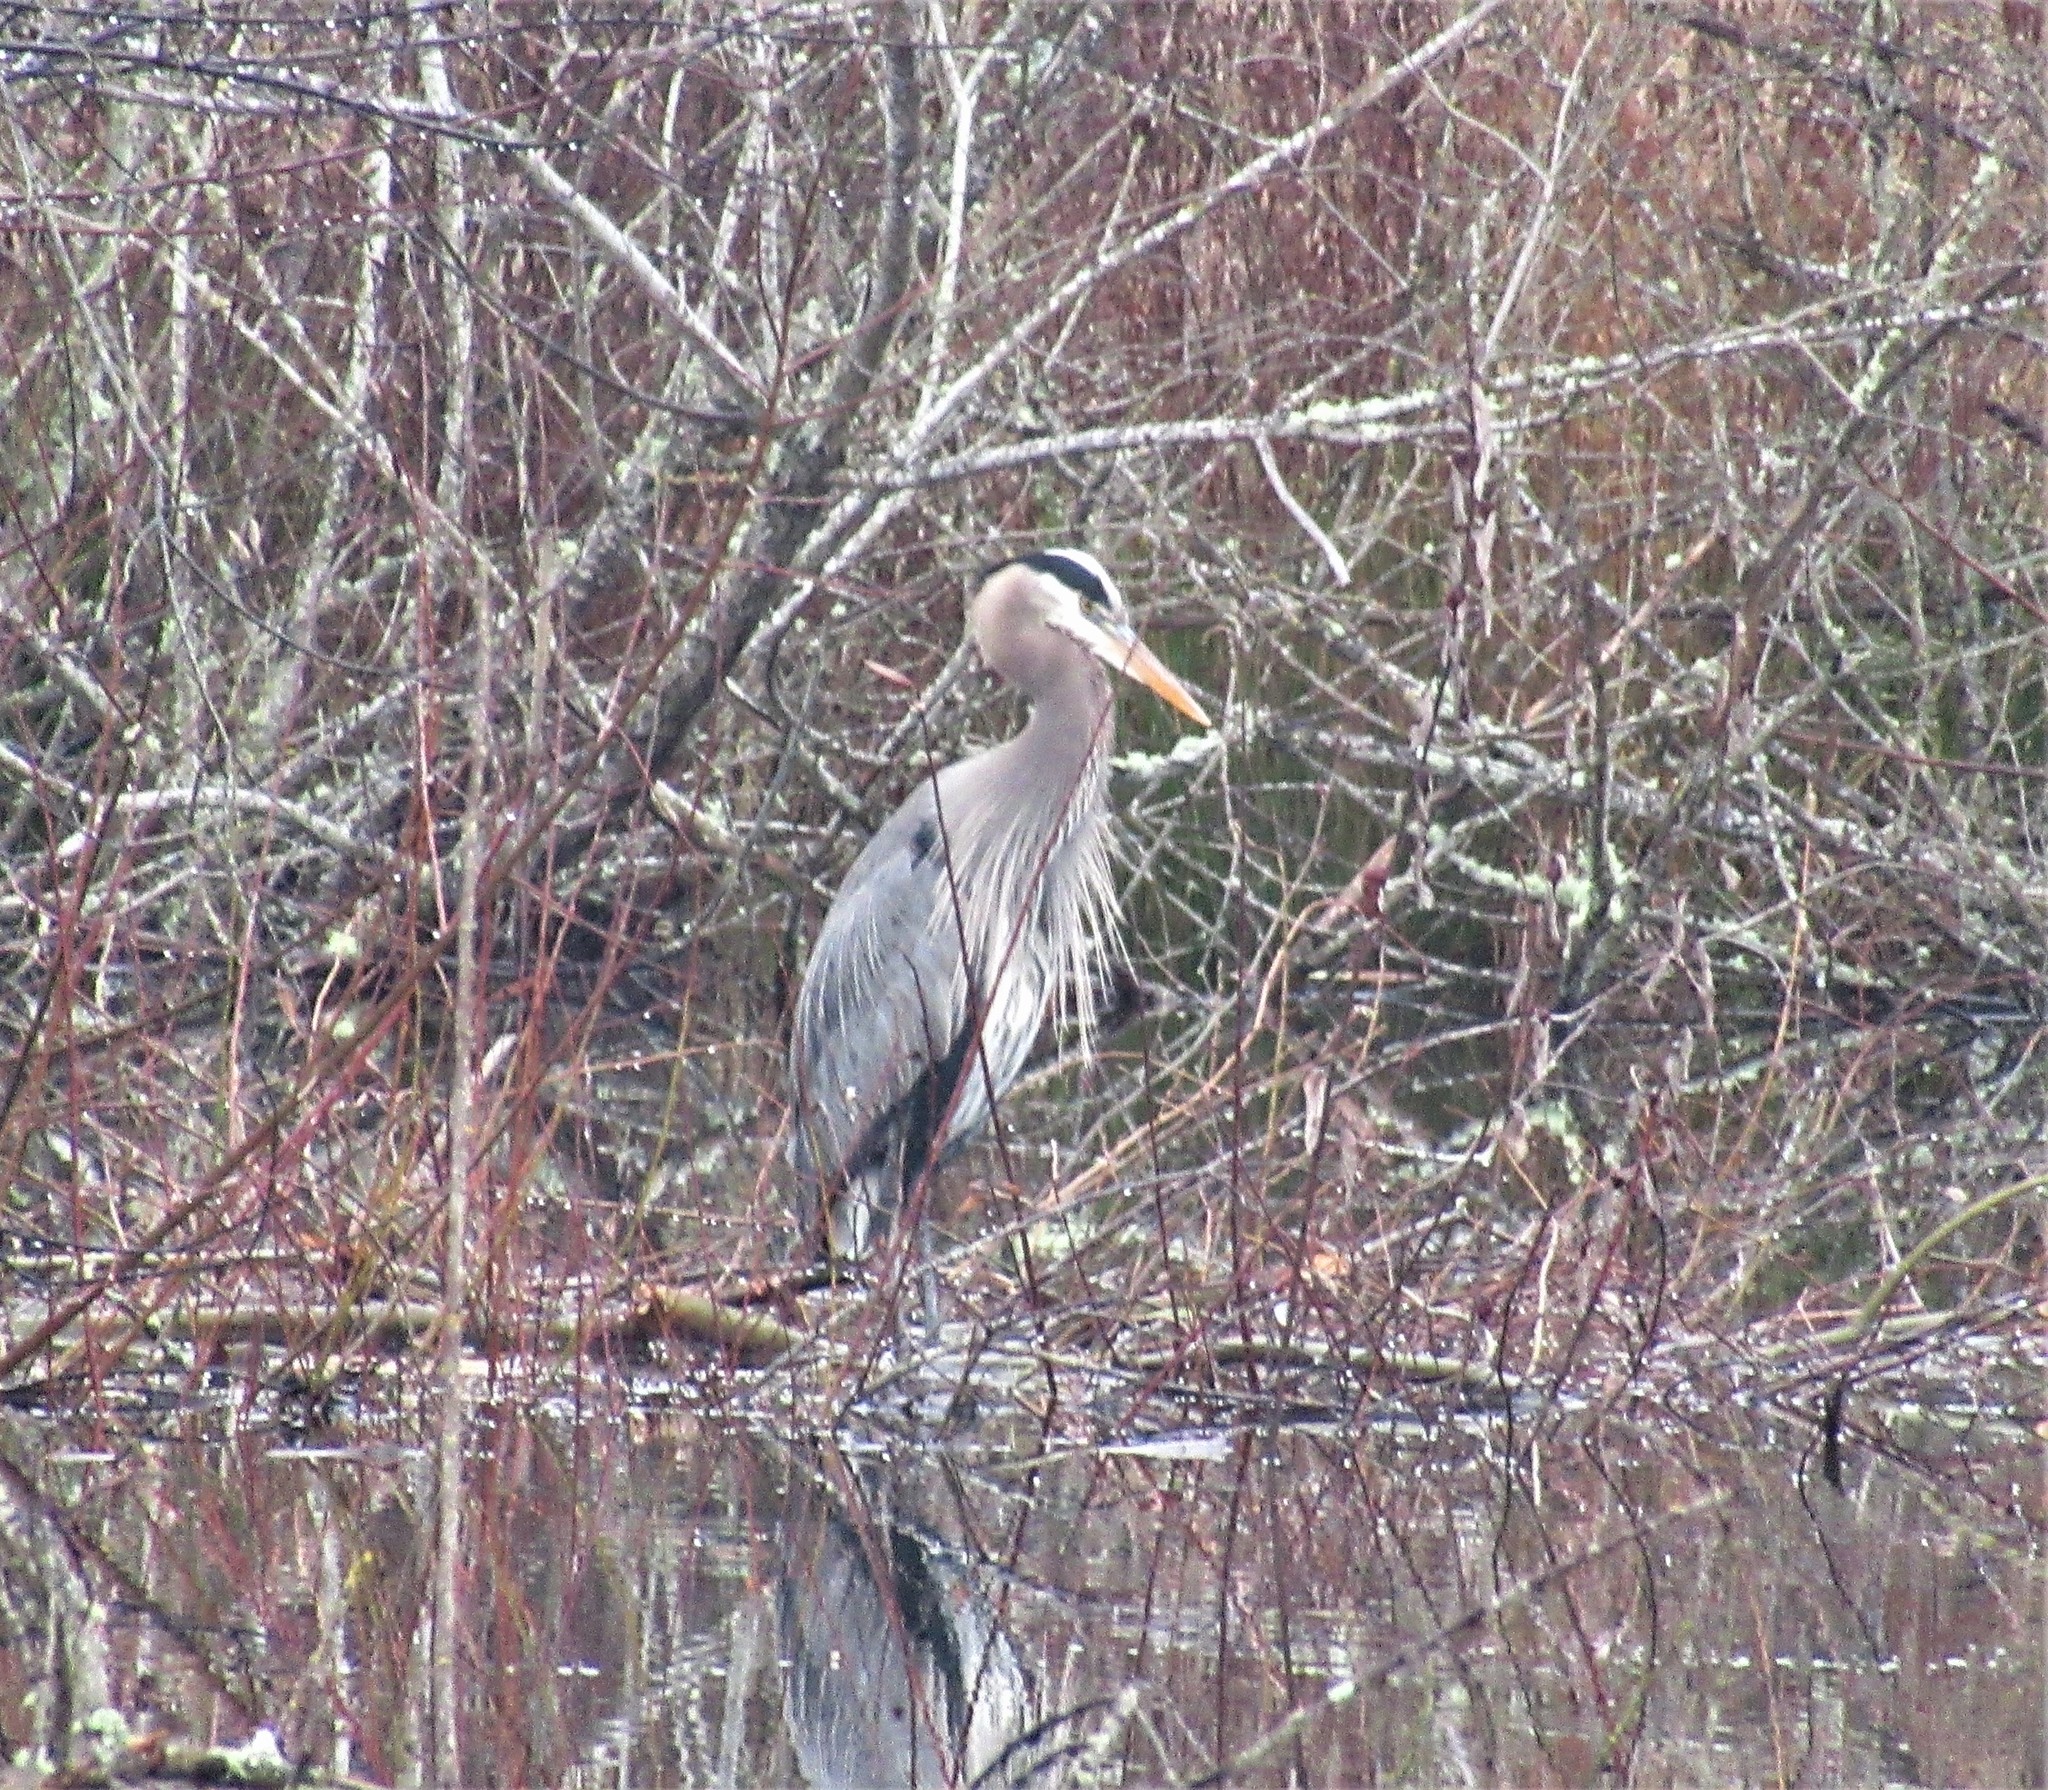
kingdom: Animalia
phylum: Chordata
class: Aves
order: Pelecaniformes
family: Ardeidae
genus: Ardea
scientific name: Ardea herodias
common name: Great blue heron
